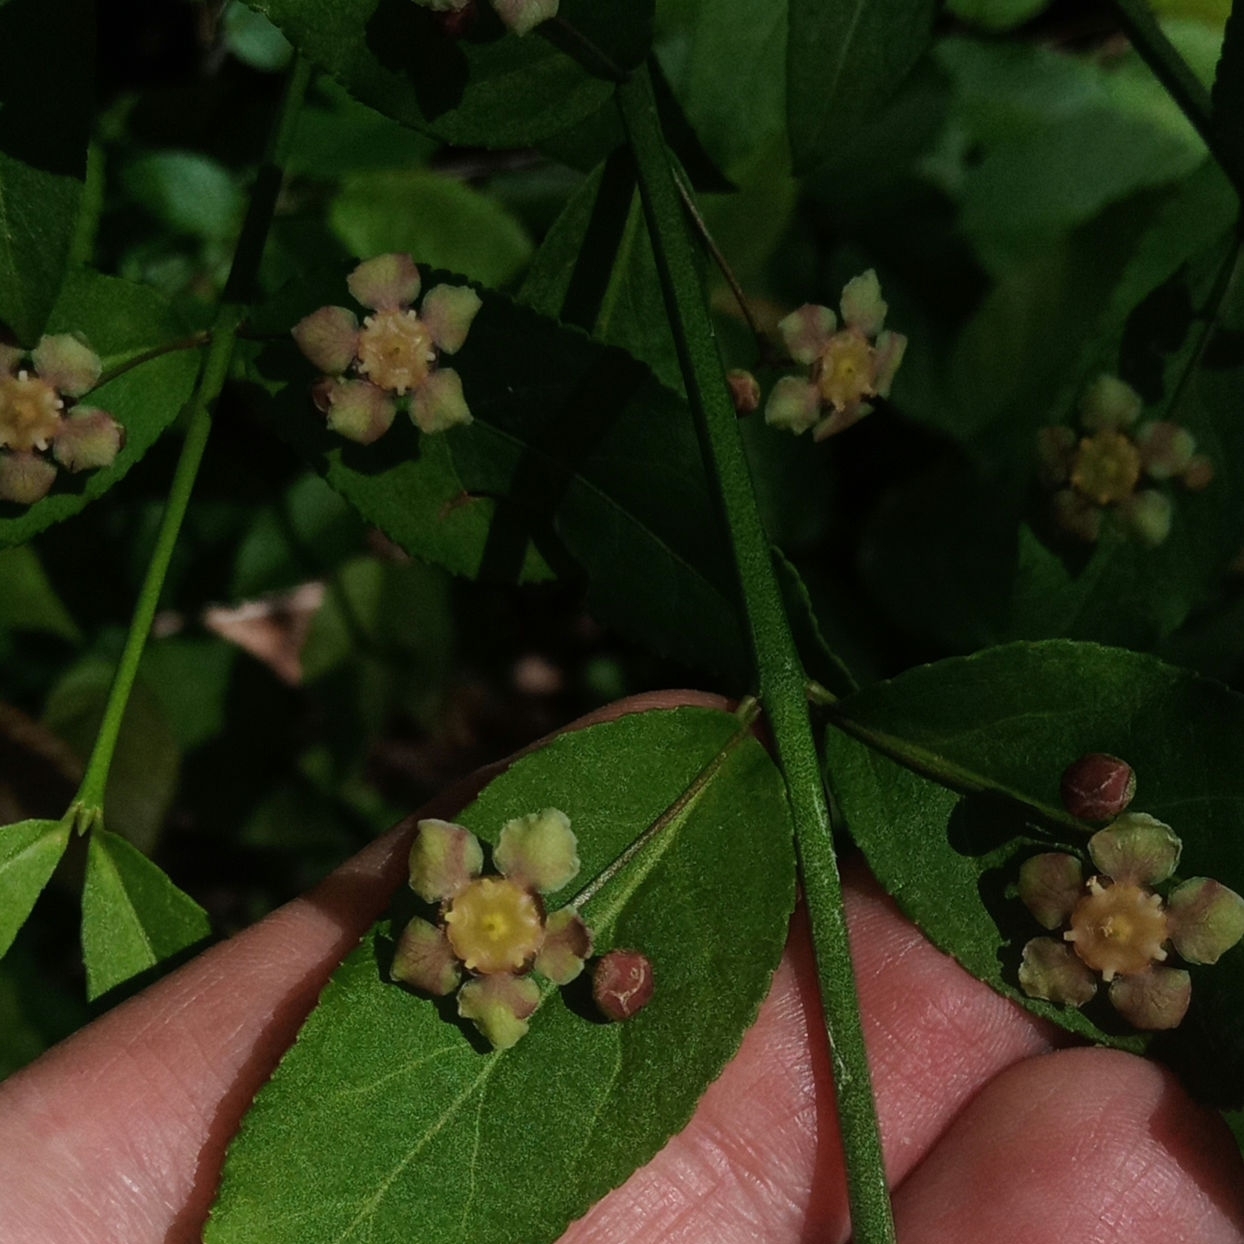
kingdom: Plantae
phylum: Tracheophyta
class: Magnoliopsida
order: Celastrales
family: Celastraceae
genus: Euonymus
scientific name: Euonymus americanus
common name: Bursting-heart
